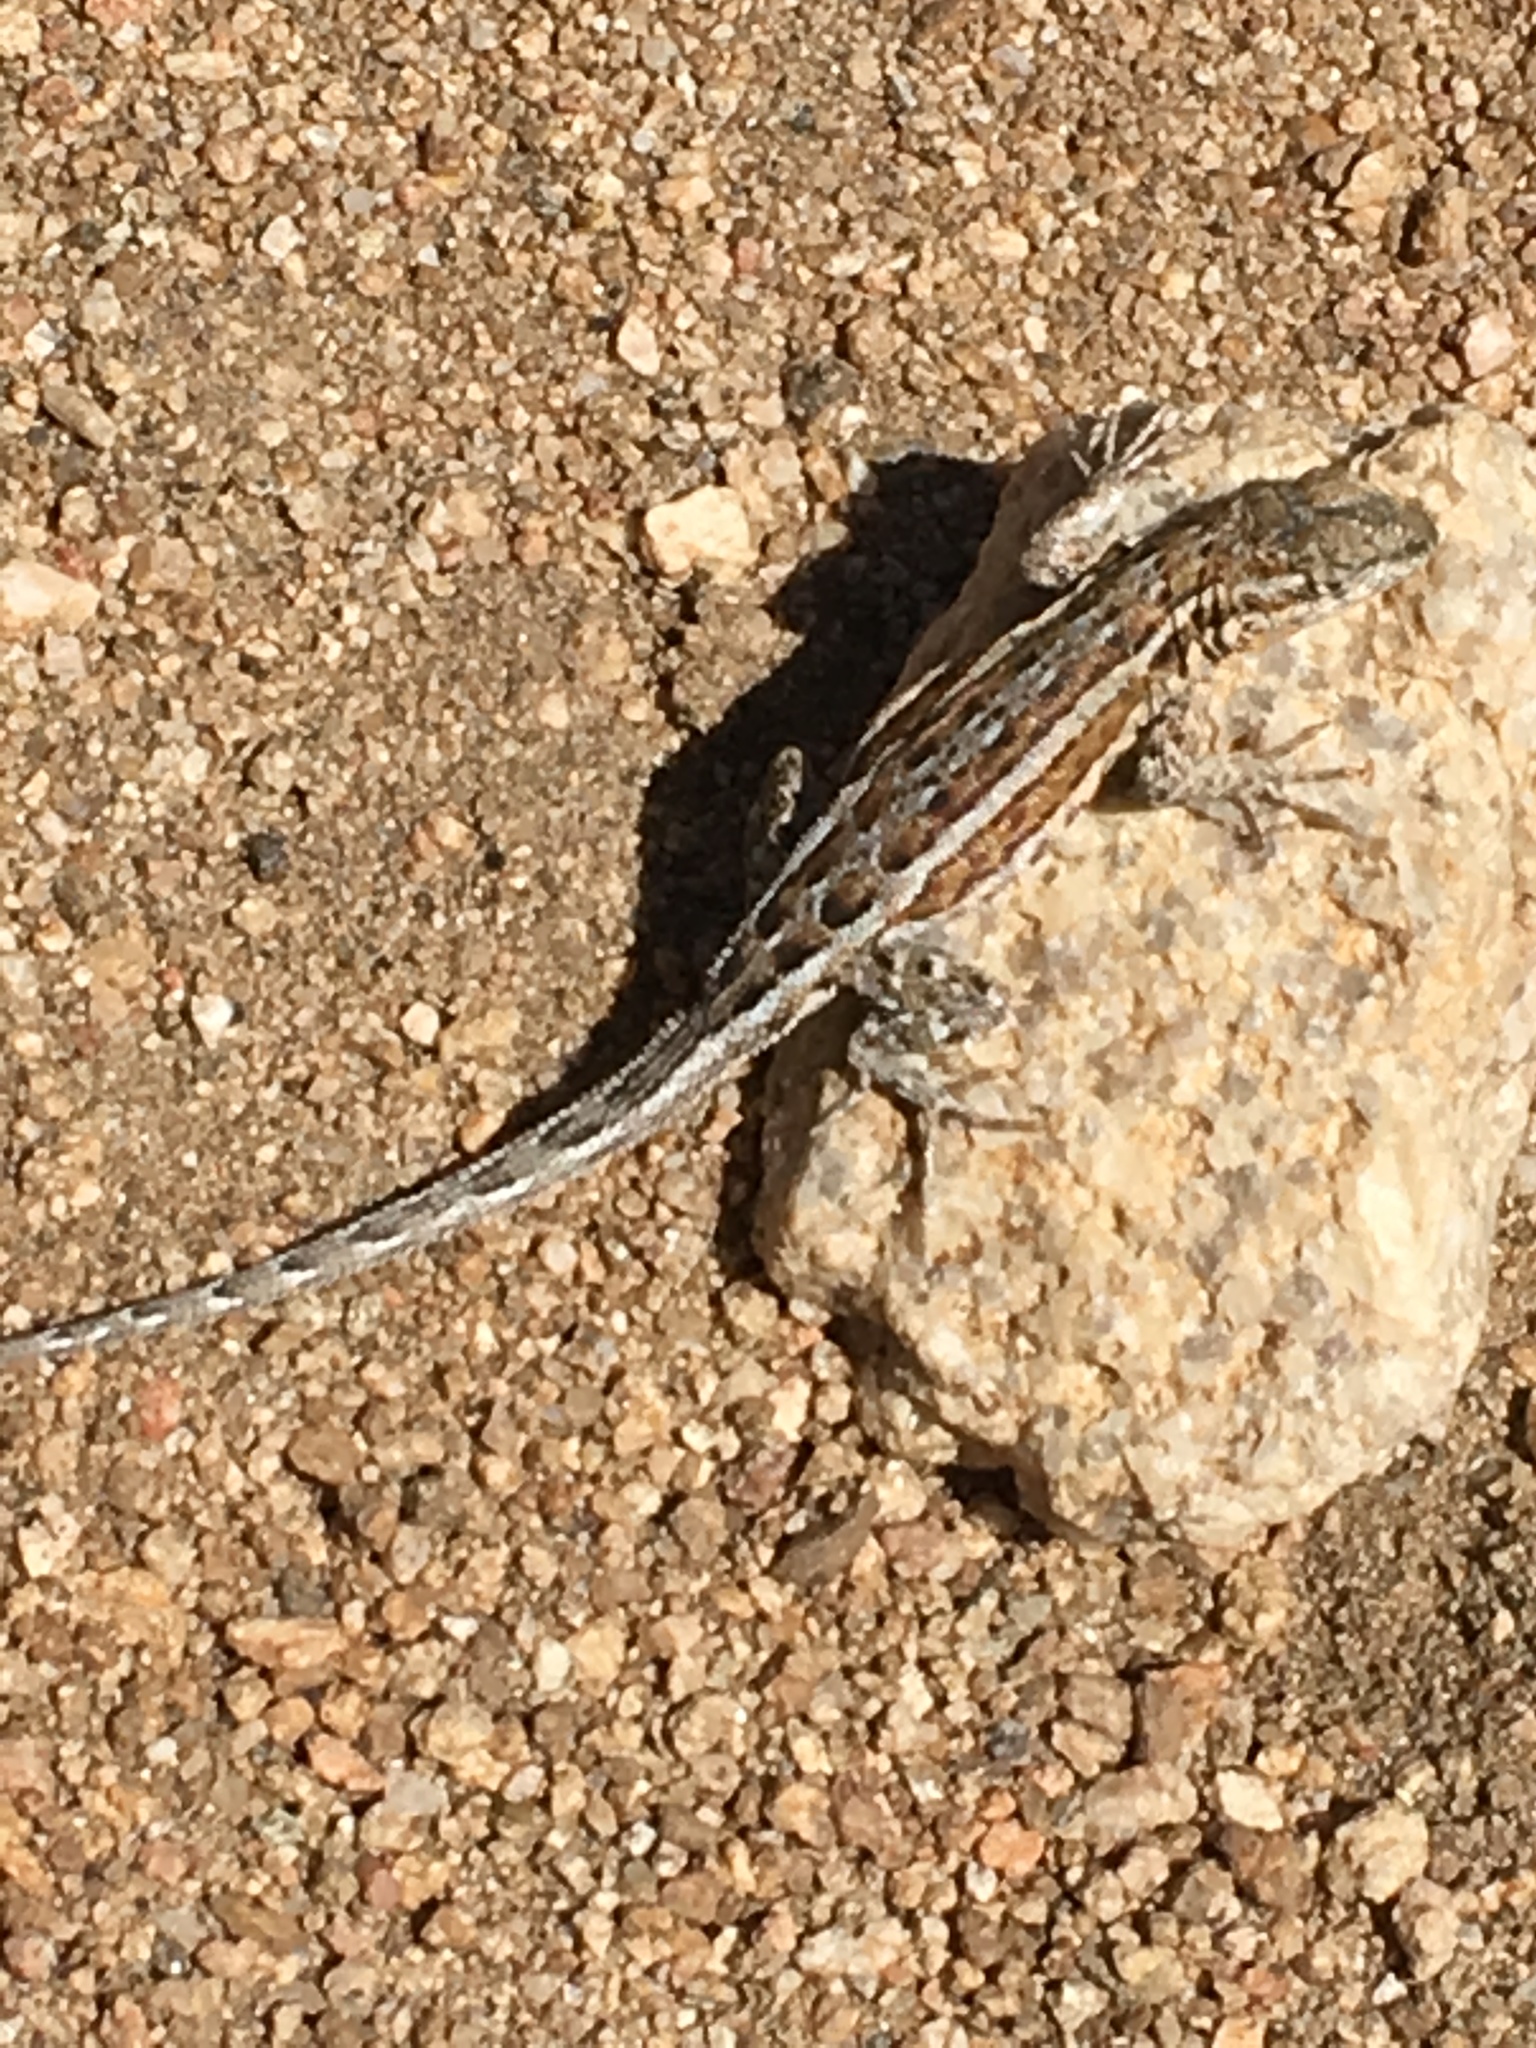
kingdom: Animalia
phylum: Chordata
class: Squamata
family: Phrynosomatidae
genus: Uta
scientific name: Uta stansburiana
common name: Side-blotched lizard
